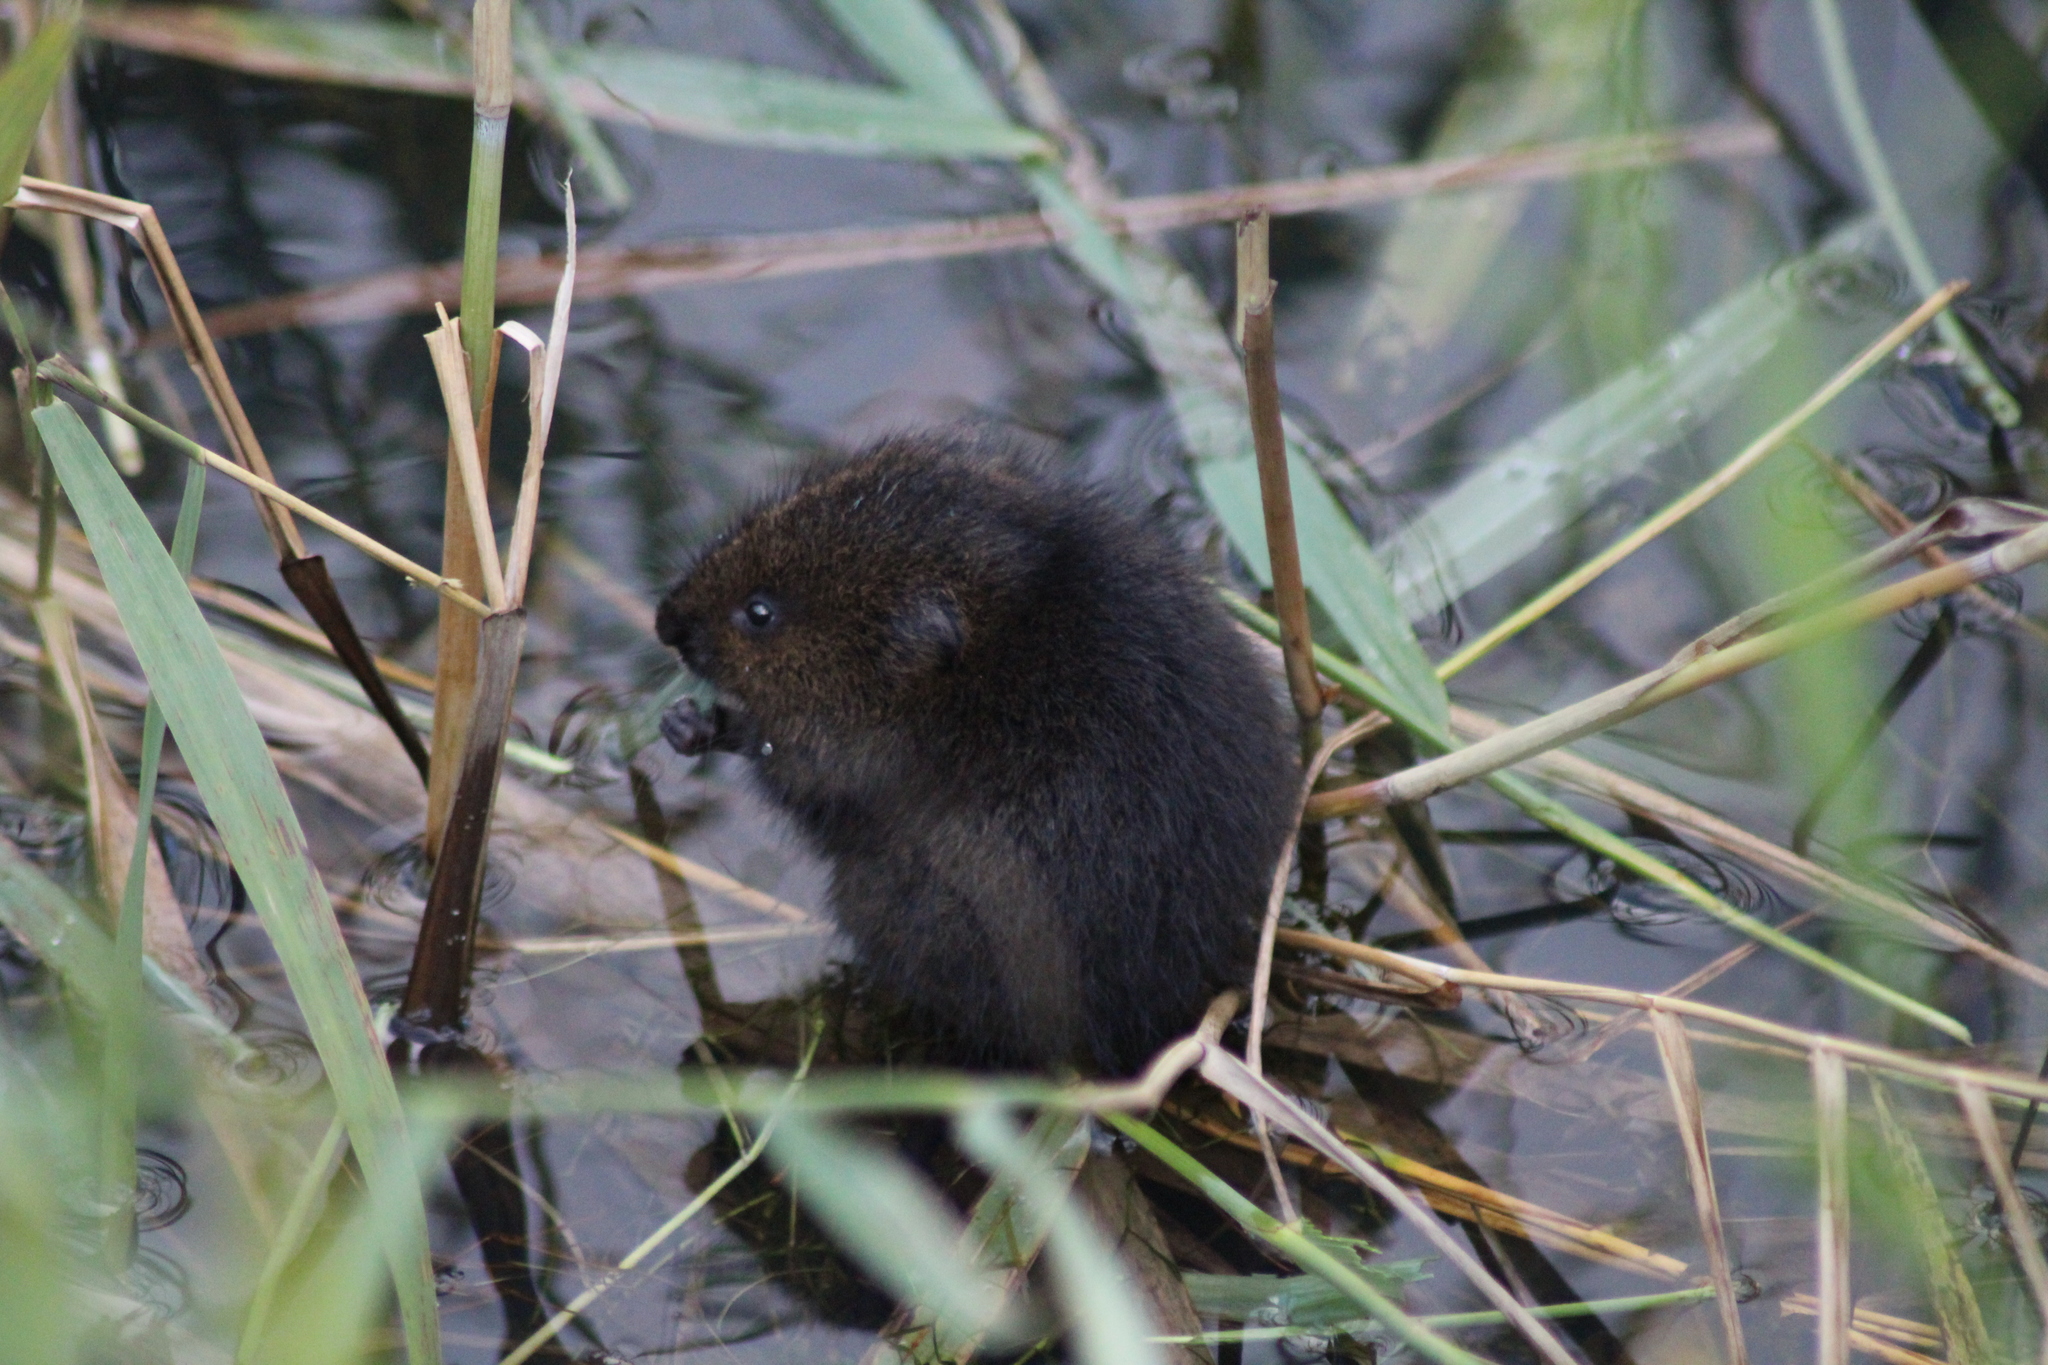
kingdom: Animalia
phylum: Chordata
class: Mammalia
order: Rodentia
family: Cricetidae
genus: Arvicola
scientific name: Arvicola amphibius
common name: European water vole
